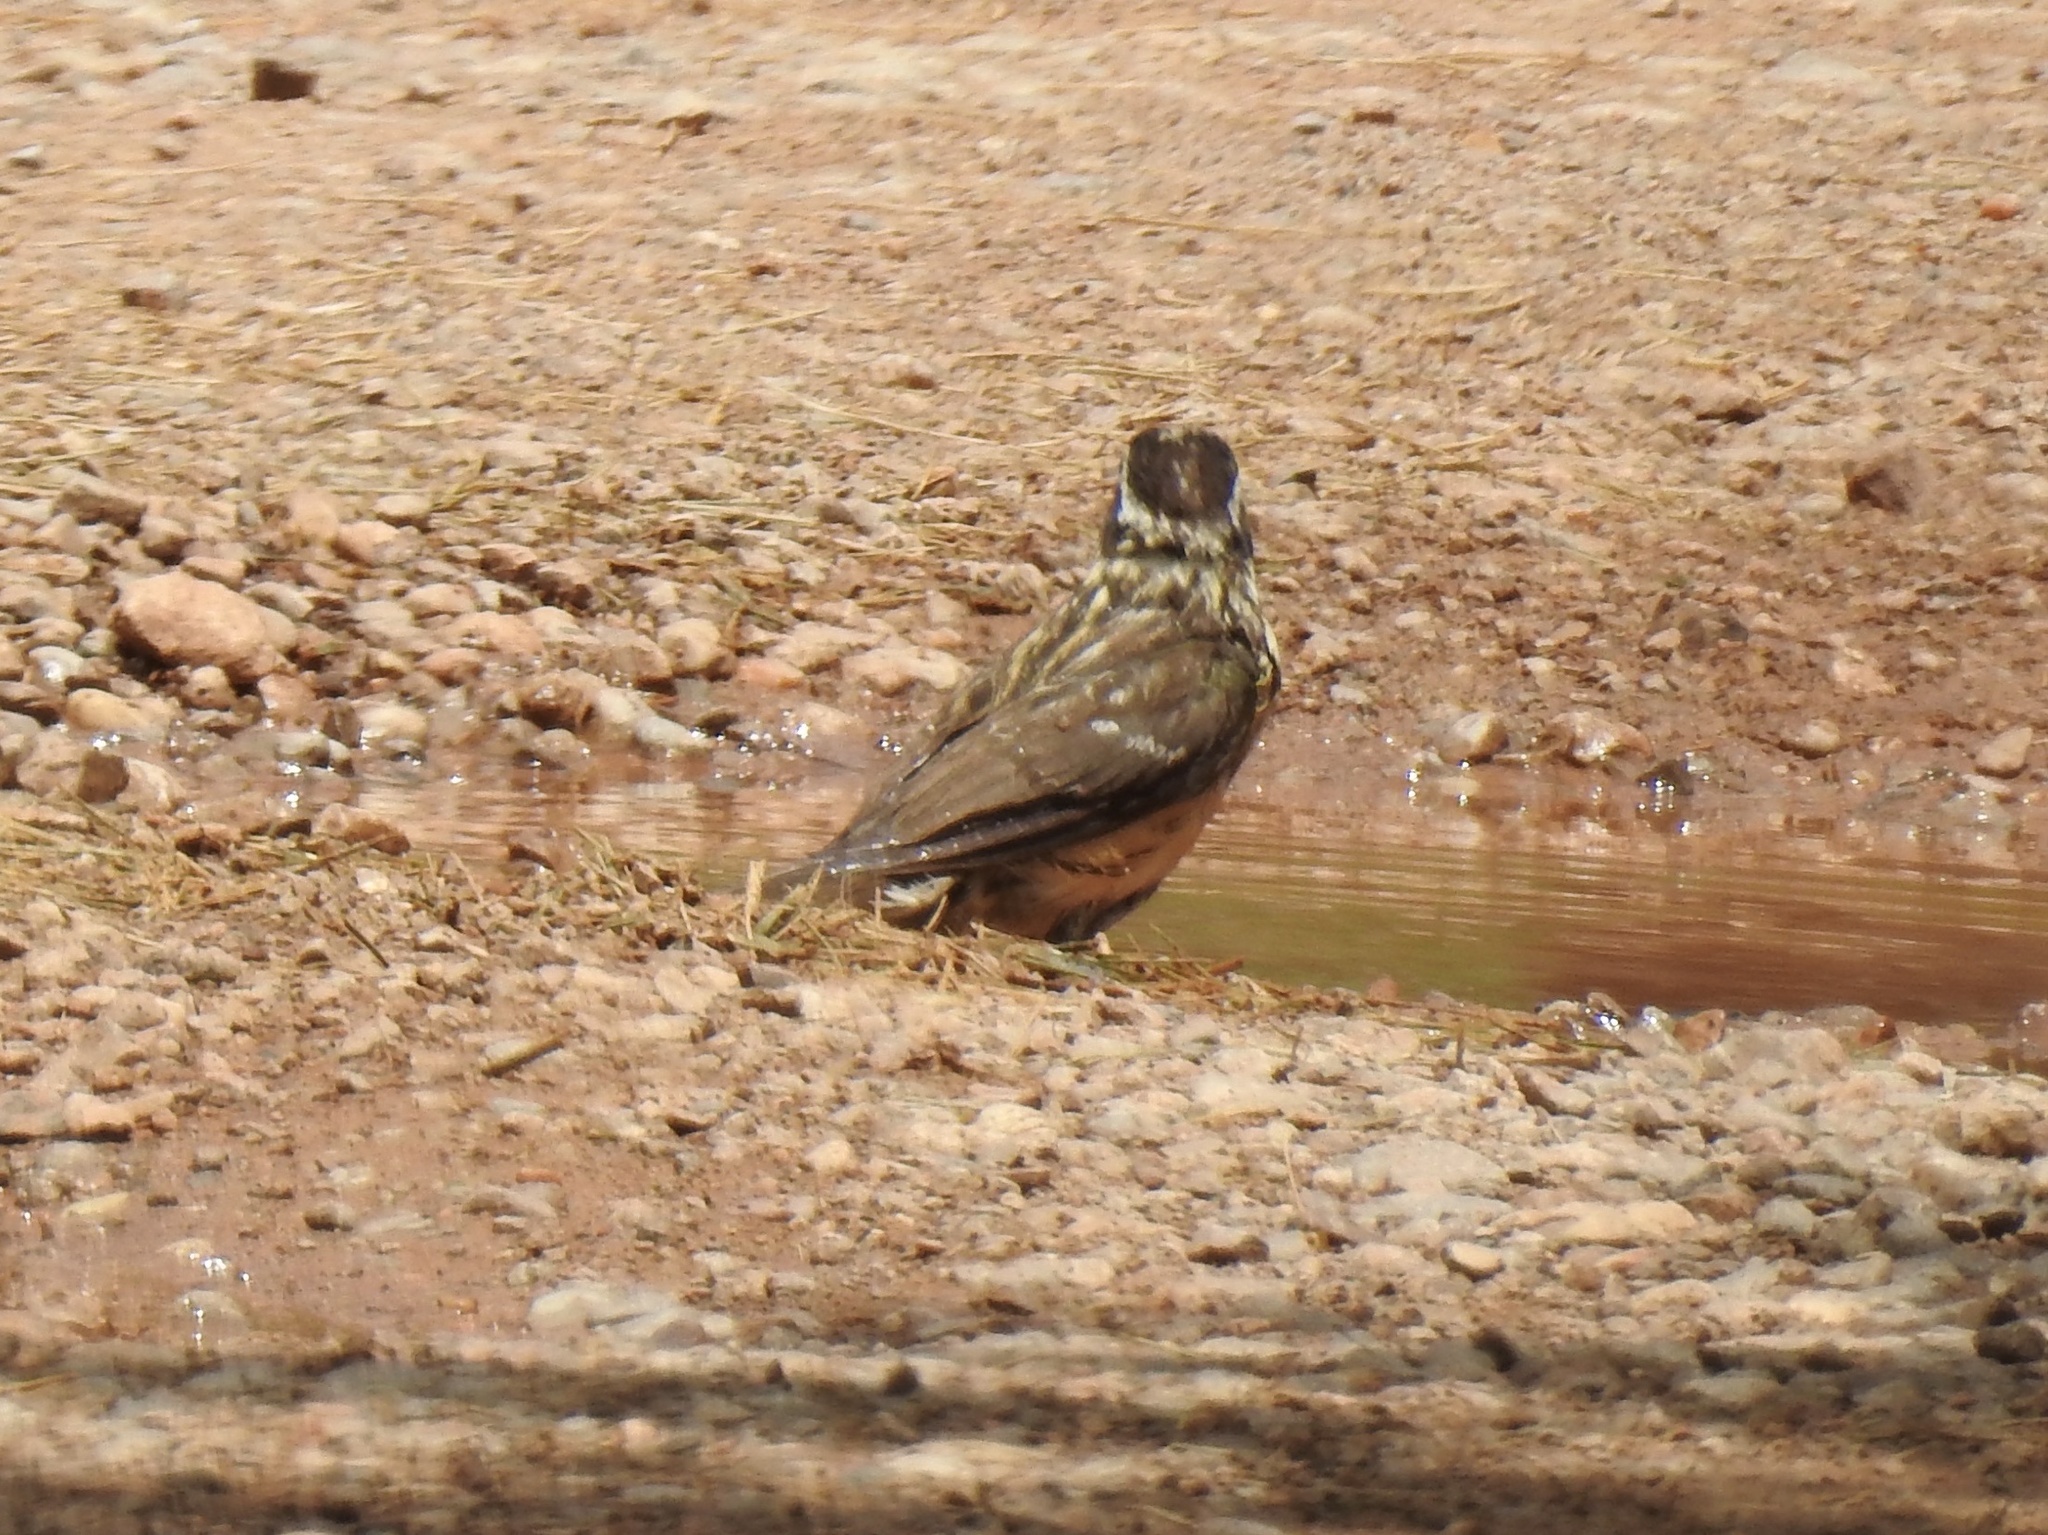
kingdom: Animalia
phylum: Chordata
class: Aves
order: Passeriformes
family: Cardinalidae
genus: Pheucticus
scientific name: Pheucticus melanocephalus
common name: Black-headed grosbeak
